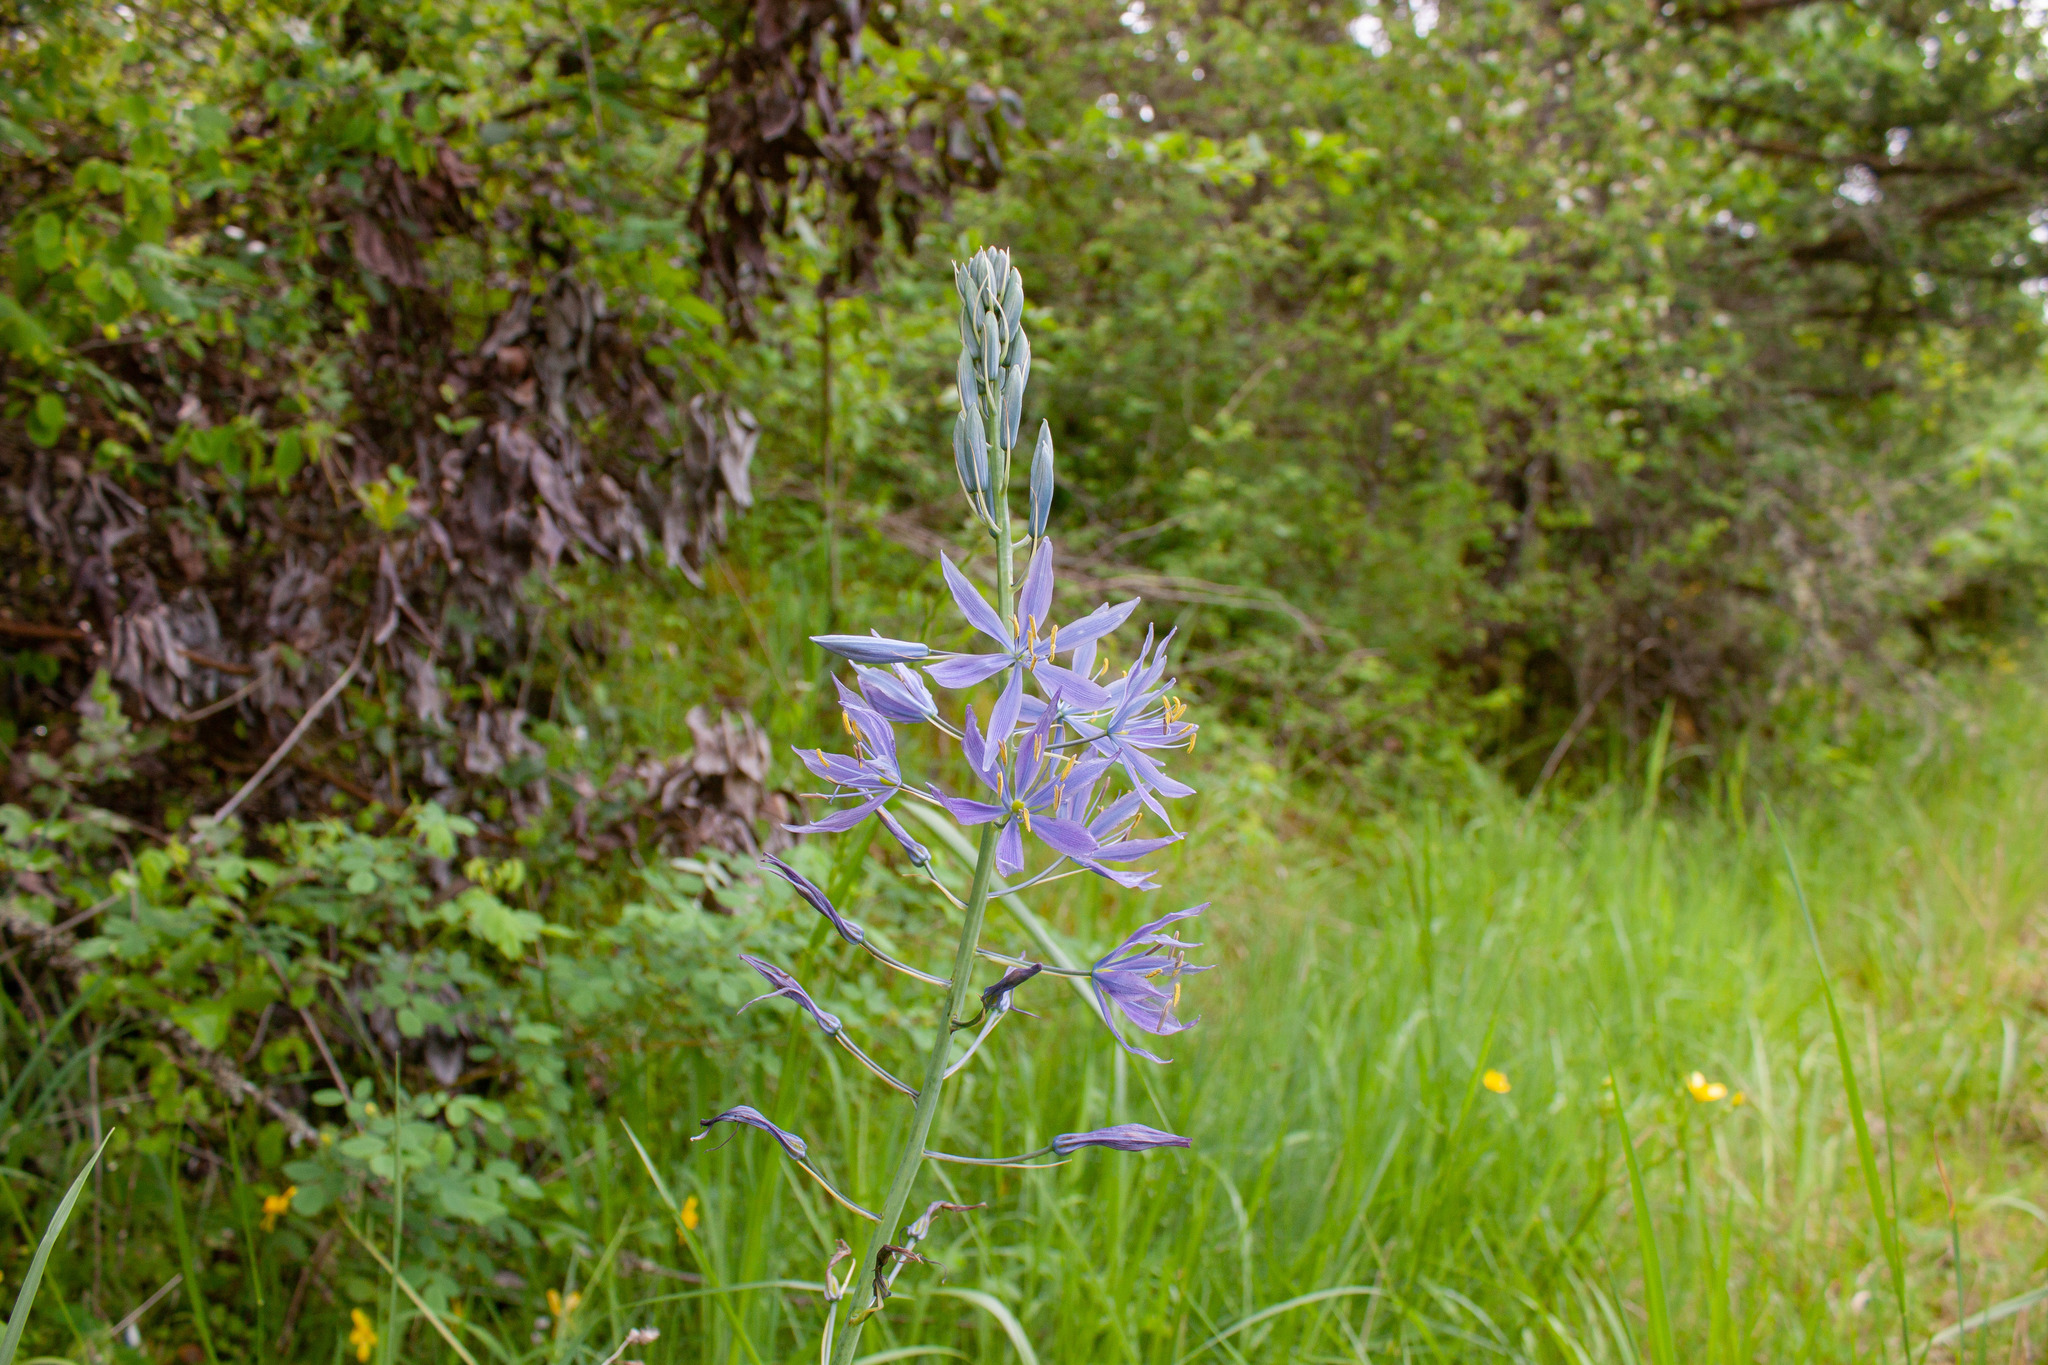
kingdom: Plantae
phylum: Tracheophyta
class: Liliopsida
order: Asparagales
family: Asparagaceae
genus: Camassia
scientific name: Camassia leichtlinii
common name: Leichtlin's camas
